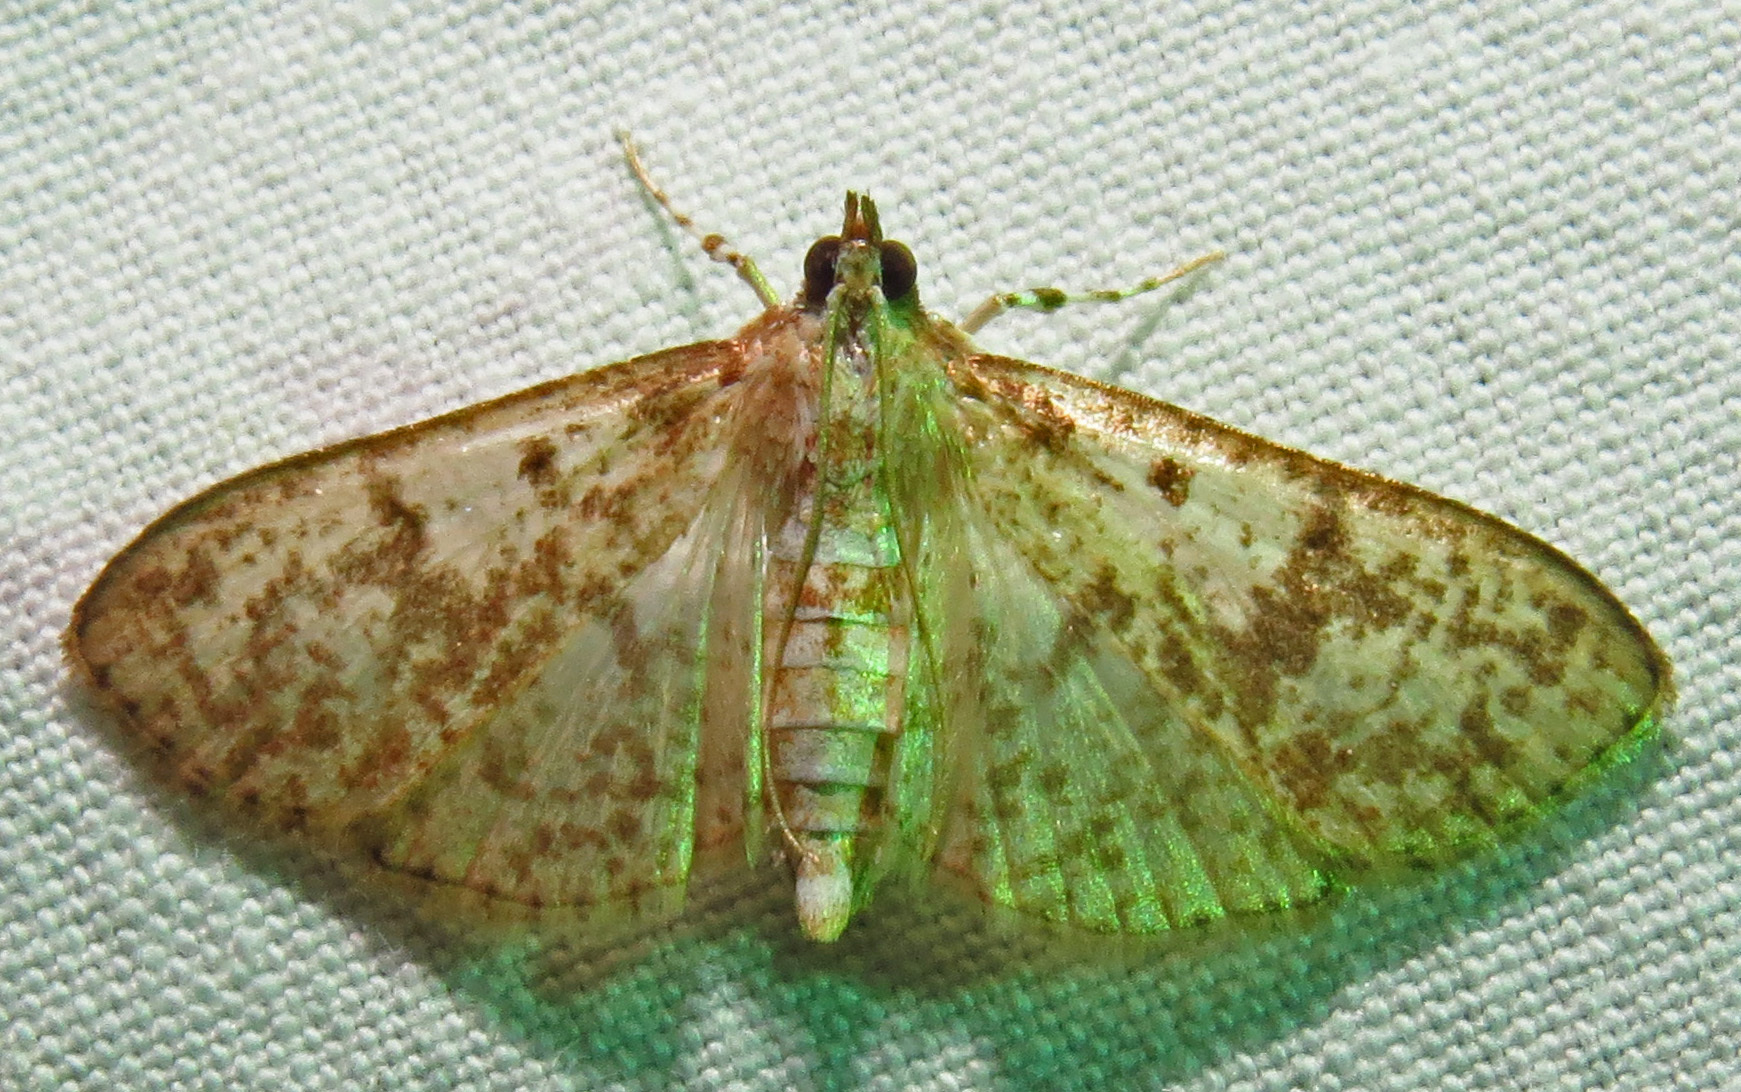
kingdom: Animalia
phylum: Arthropoda
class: Insecta
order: Lepidoptera
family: Crambidae
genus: Palpita
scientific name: Palpita freemanalis
